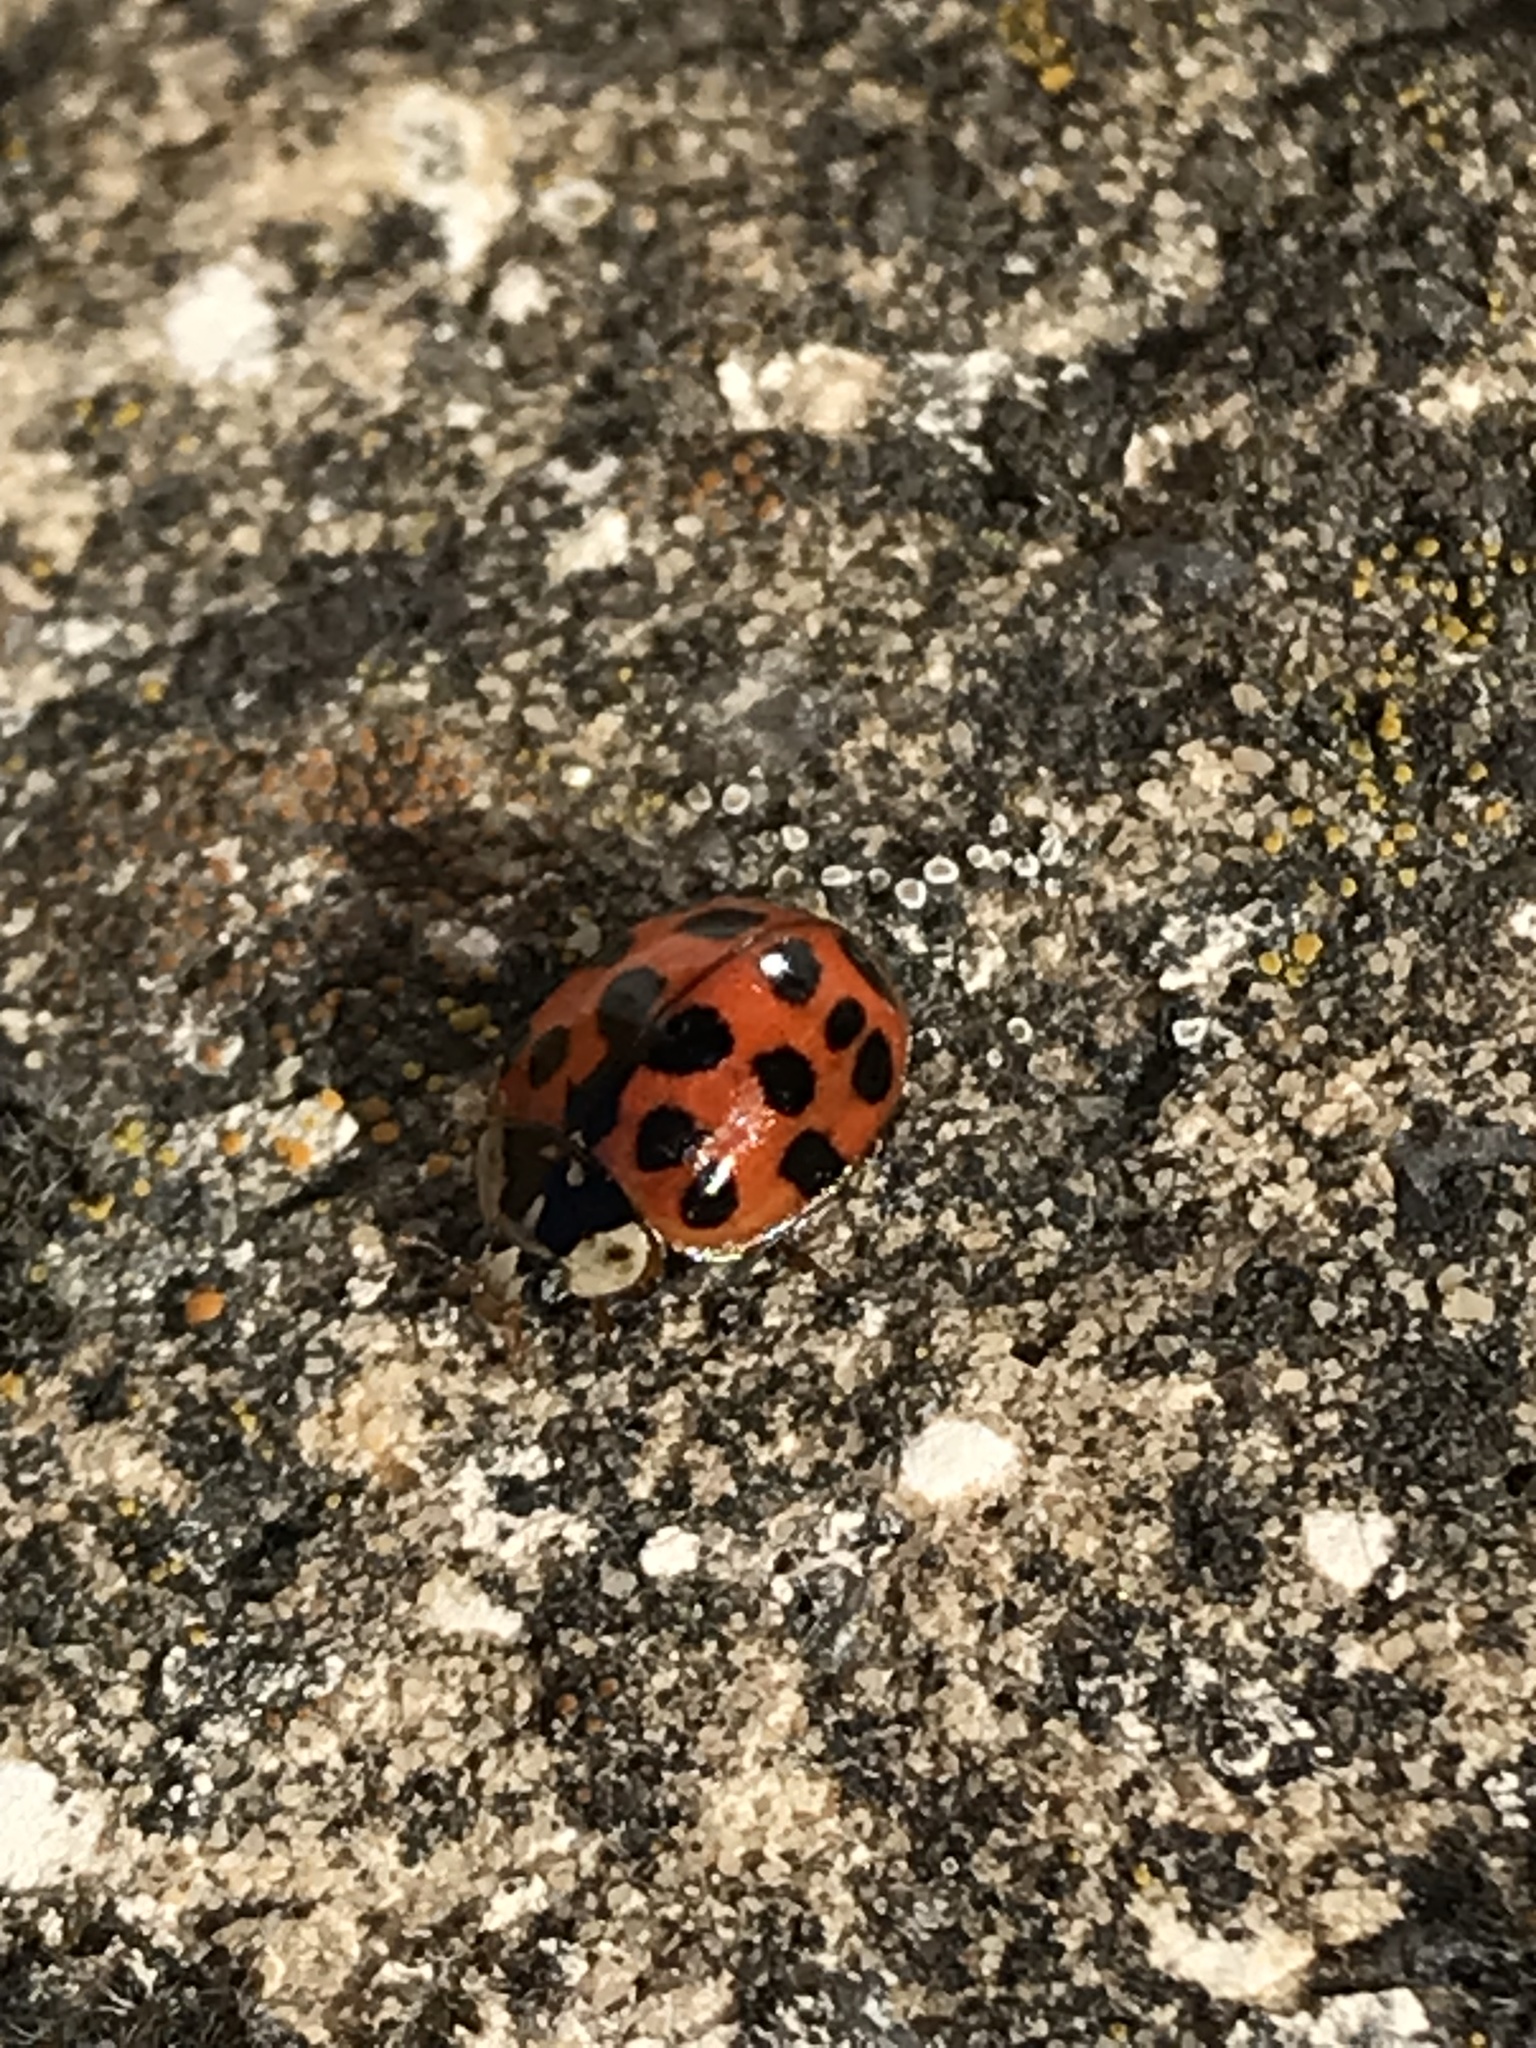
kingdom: Animalia
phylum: Arthropoda
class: Insecta
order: Coleoptera
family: Coccinellidae
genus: Harmonia
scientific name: Harmonia axyridis
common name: Harlequin ladybird
